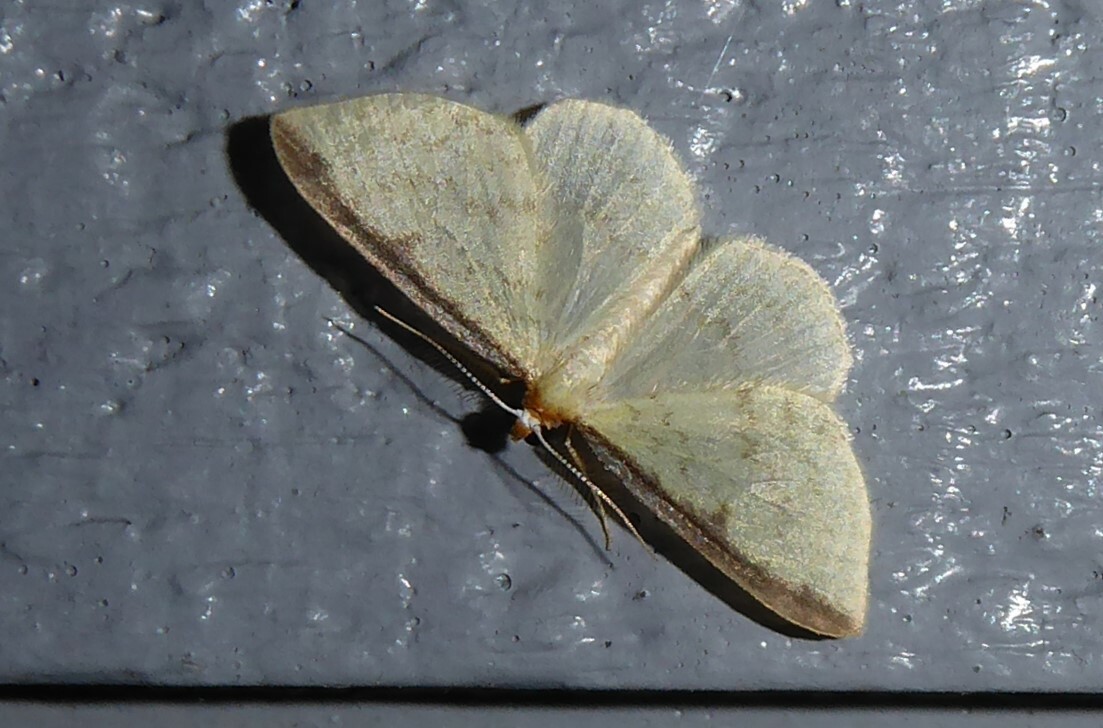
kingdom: Animalia
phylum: Arthropoda
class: Insecta
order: Lepidoptera
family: Geometridae
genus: Epiphryne
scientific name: Epiphryne undosata
